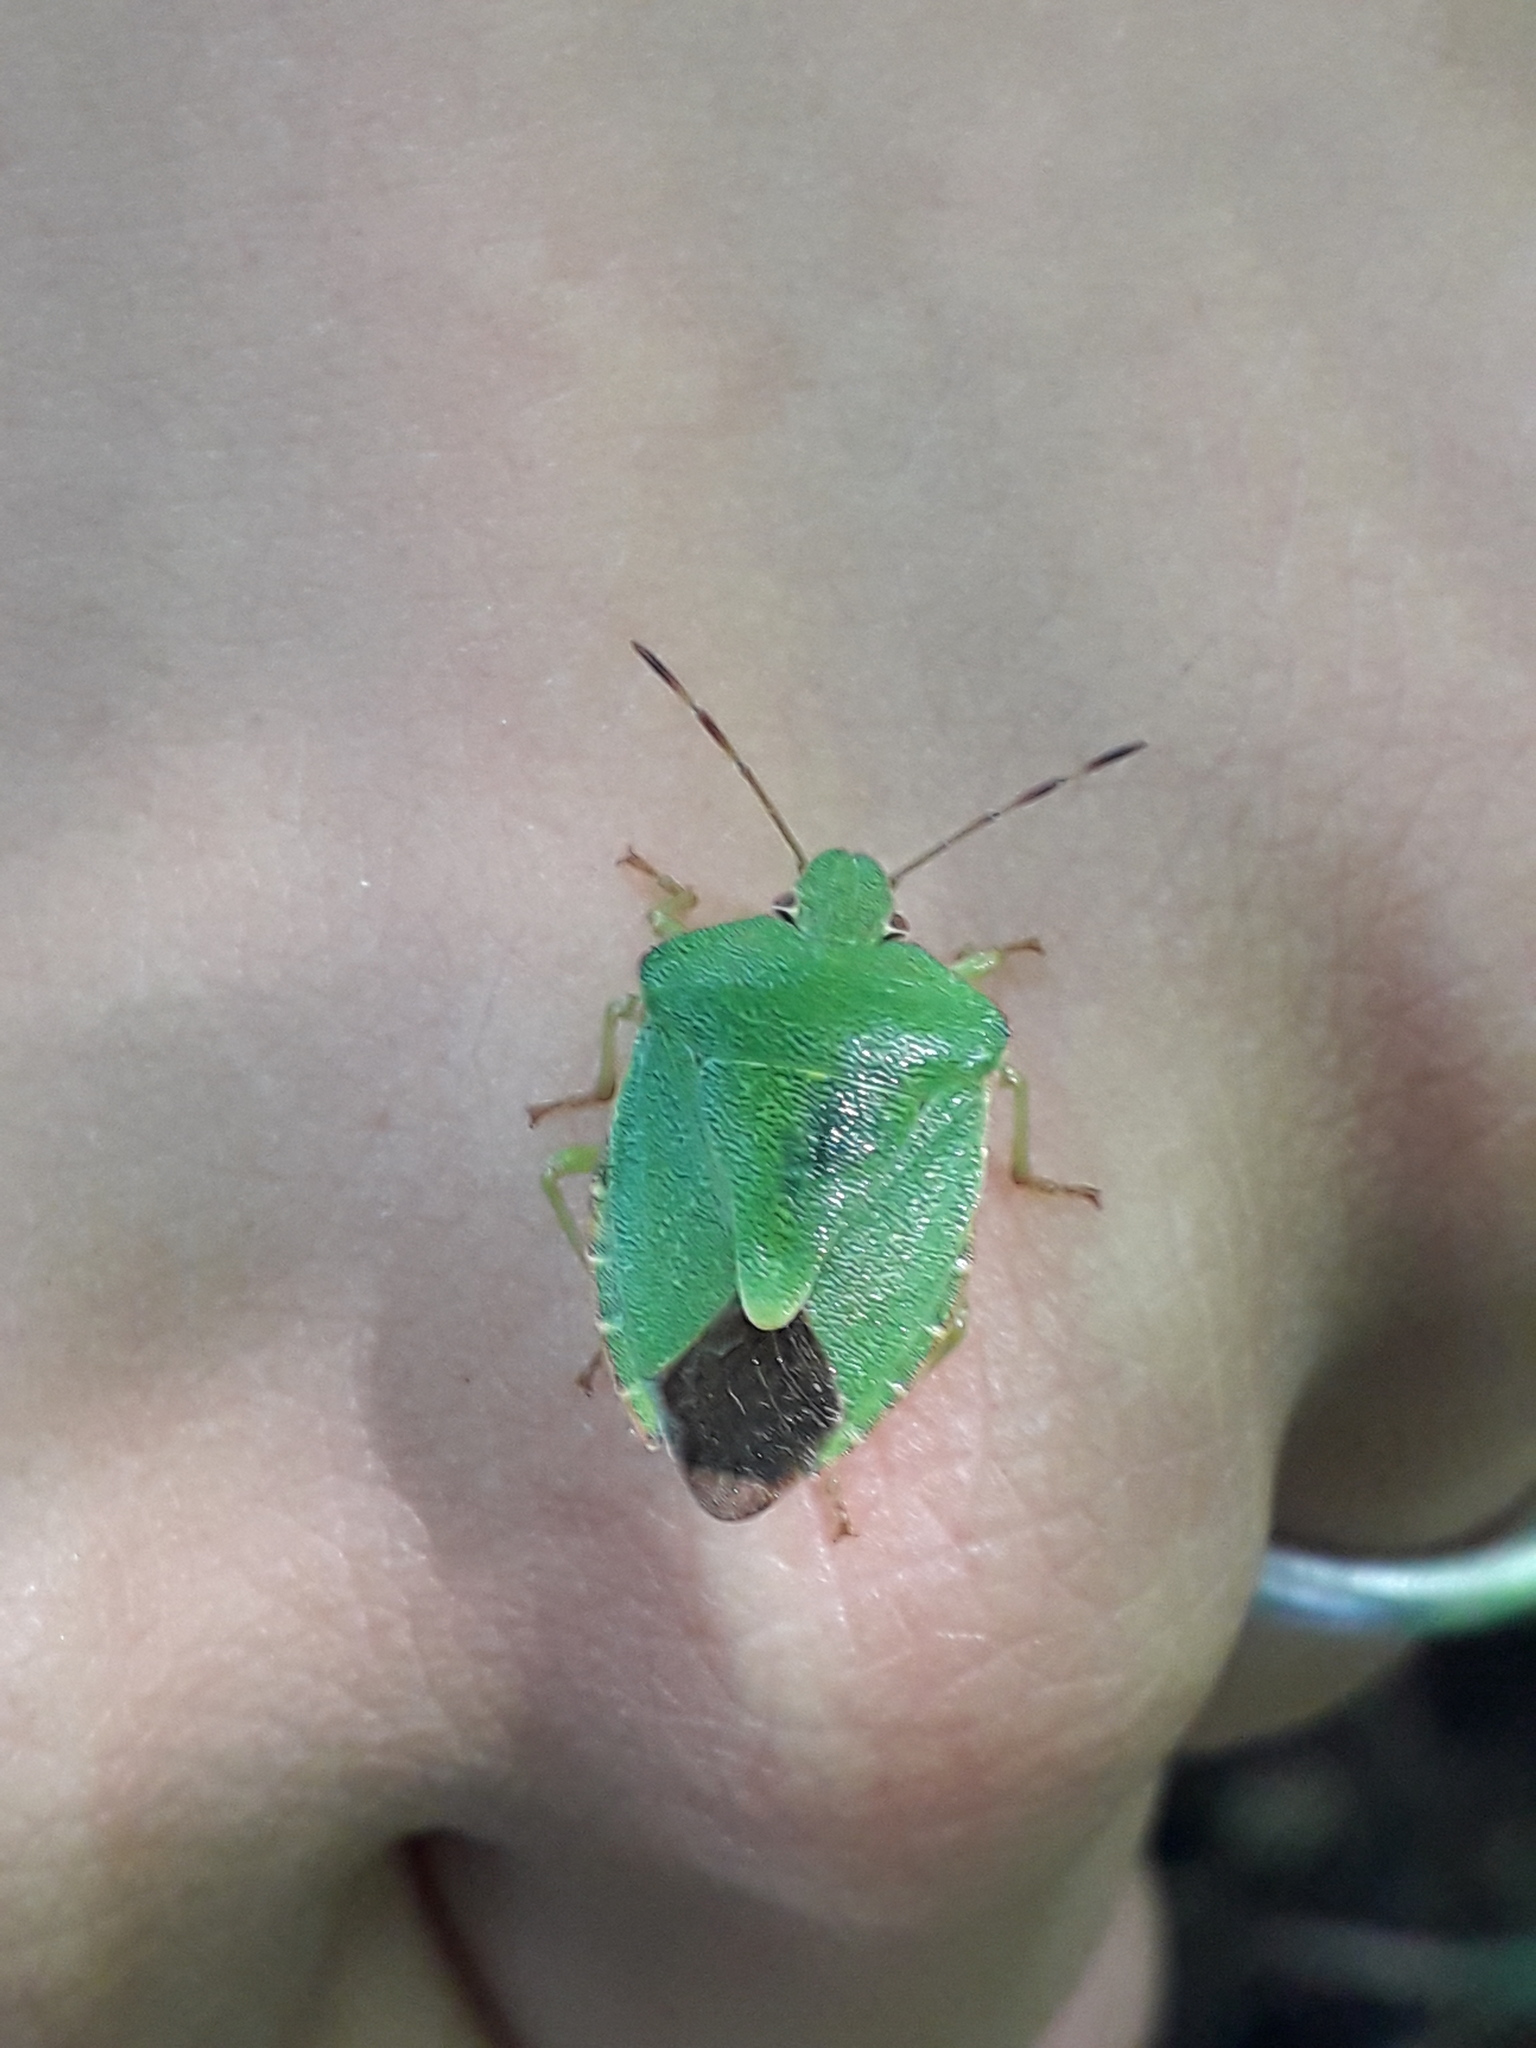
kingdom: Animalia
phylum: Arthropoda
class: Insecta
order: Hemiptera
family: Pentatomidae
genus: Palomena
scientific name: Palomena prasina
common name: Green shieldbug
